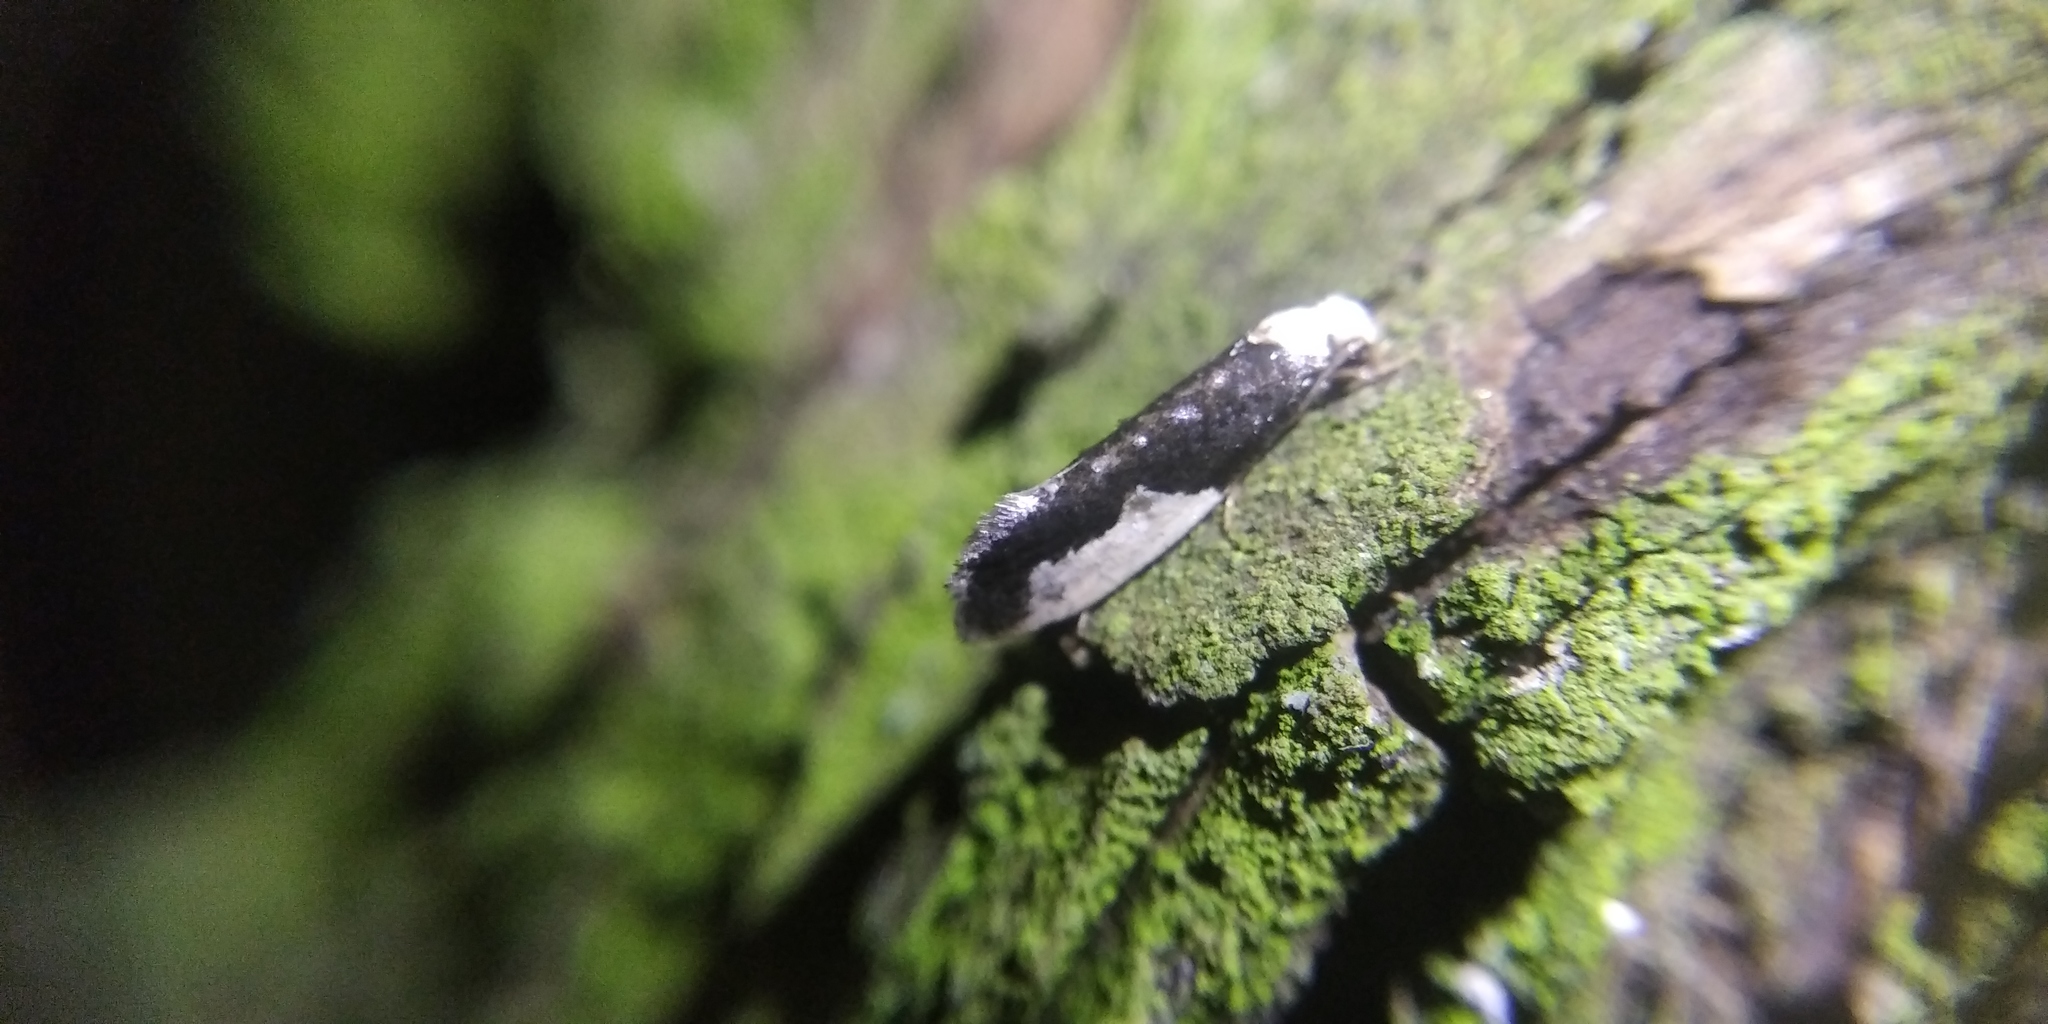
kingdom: Animalia
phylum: Arthropoda
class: Insecta
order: Lepidoptera
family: Tineidae
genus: Monopis
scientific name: Monopis monachella
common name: Moth
